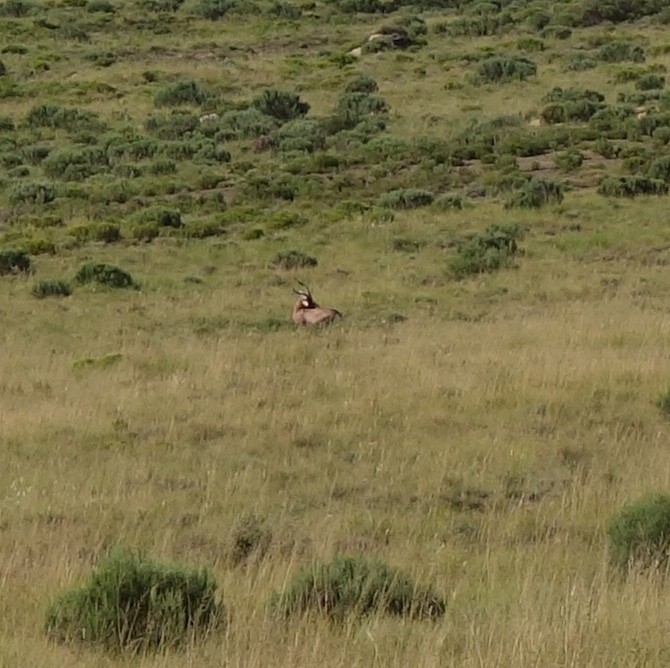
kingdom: Animalia
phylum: Chordata
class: Mammalia
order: Artiodactyla
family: Bovidae
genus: Damaliscus
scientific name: Damaliscus pygargus
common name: Bontebok
